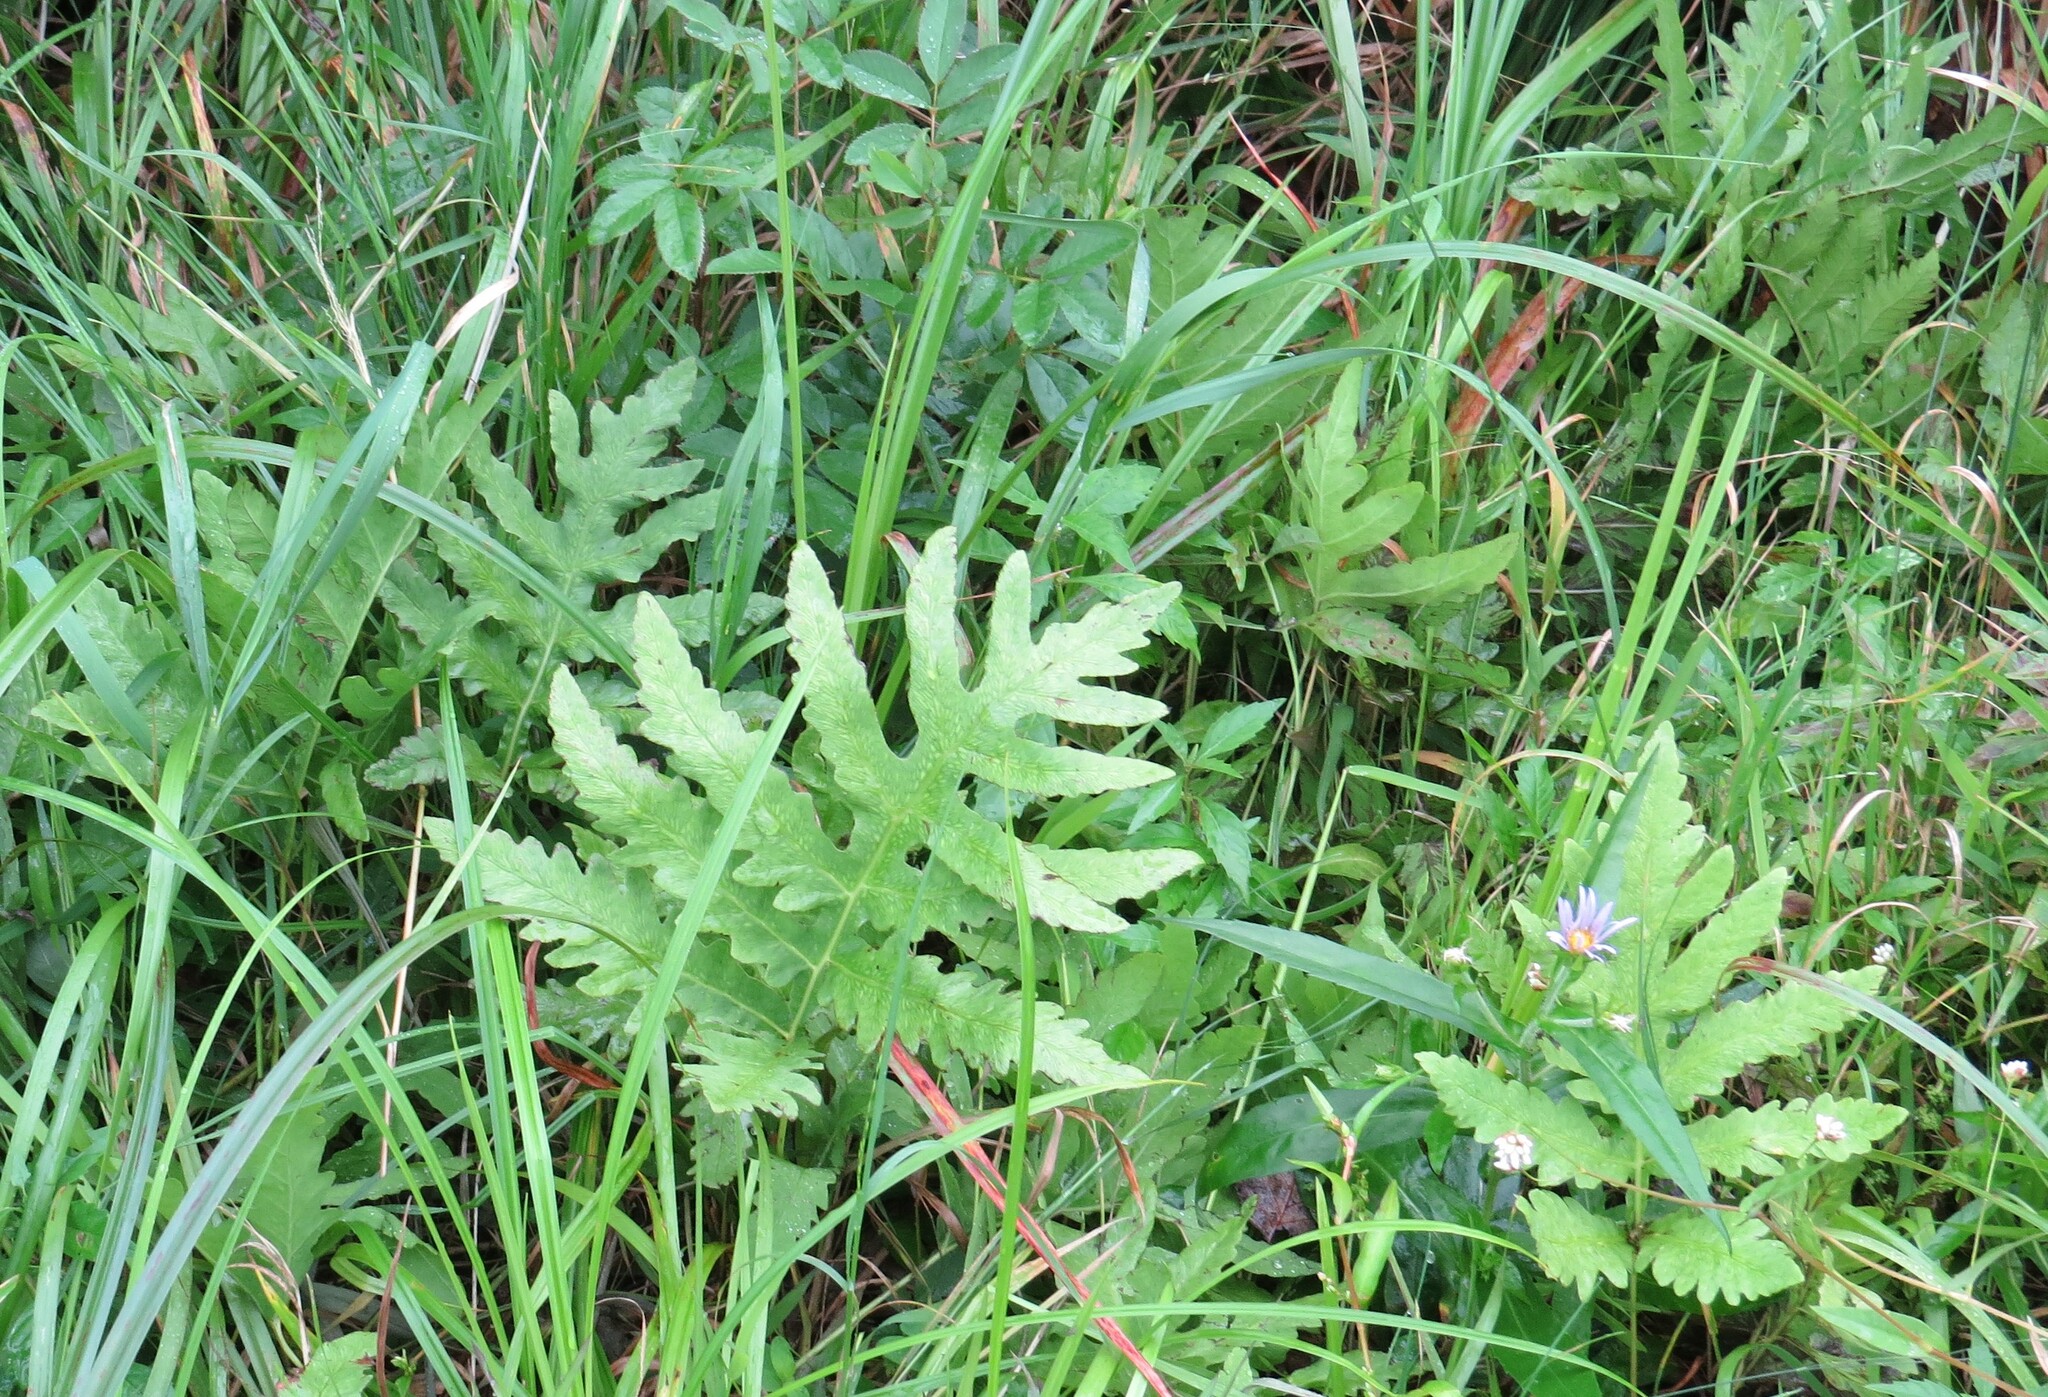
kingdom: Plantae
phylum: Tracheophyta
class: Polypodiopsida
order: Polypodiales
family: Onocleaceae
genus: Onoclea
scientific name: Onoclea sensibilis
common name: Sensitive fern
